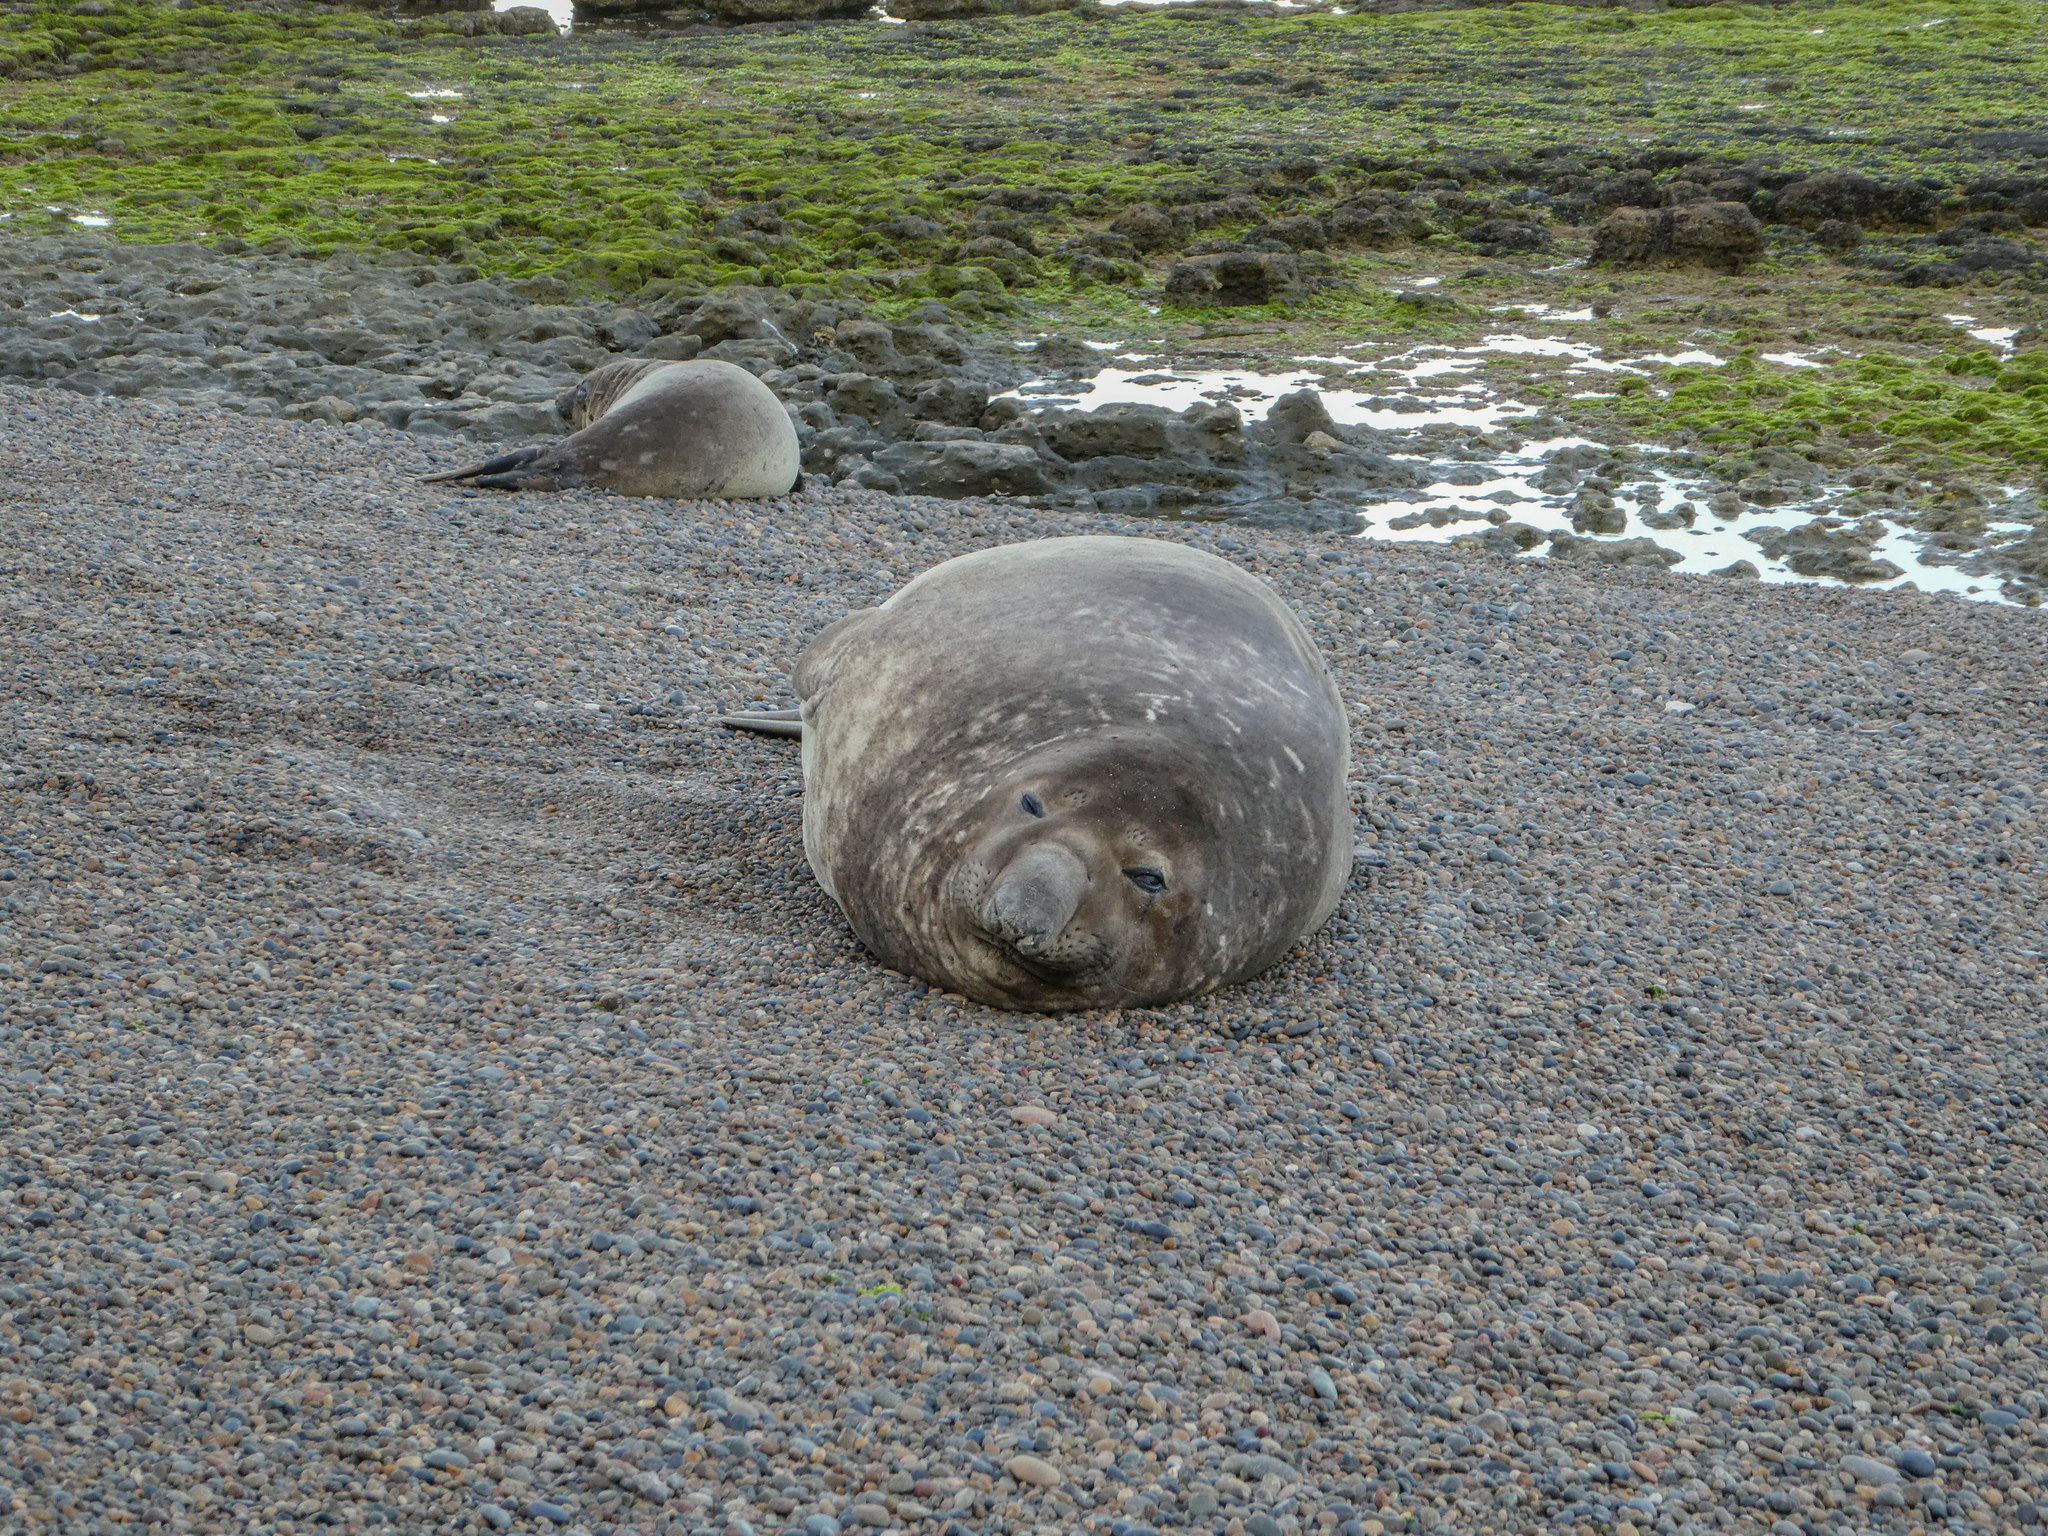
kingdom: Animalia
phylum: Chordata
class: Mammalia
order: Carnivora
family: Phocidae
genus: Mirounga
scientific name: Mirounga leonina
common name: Southern elephant seal
